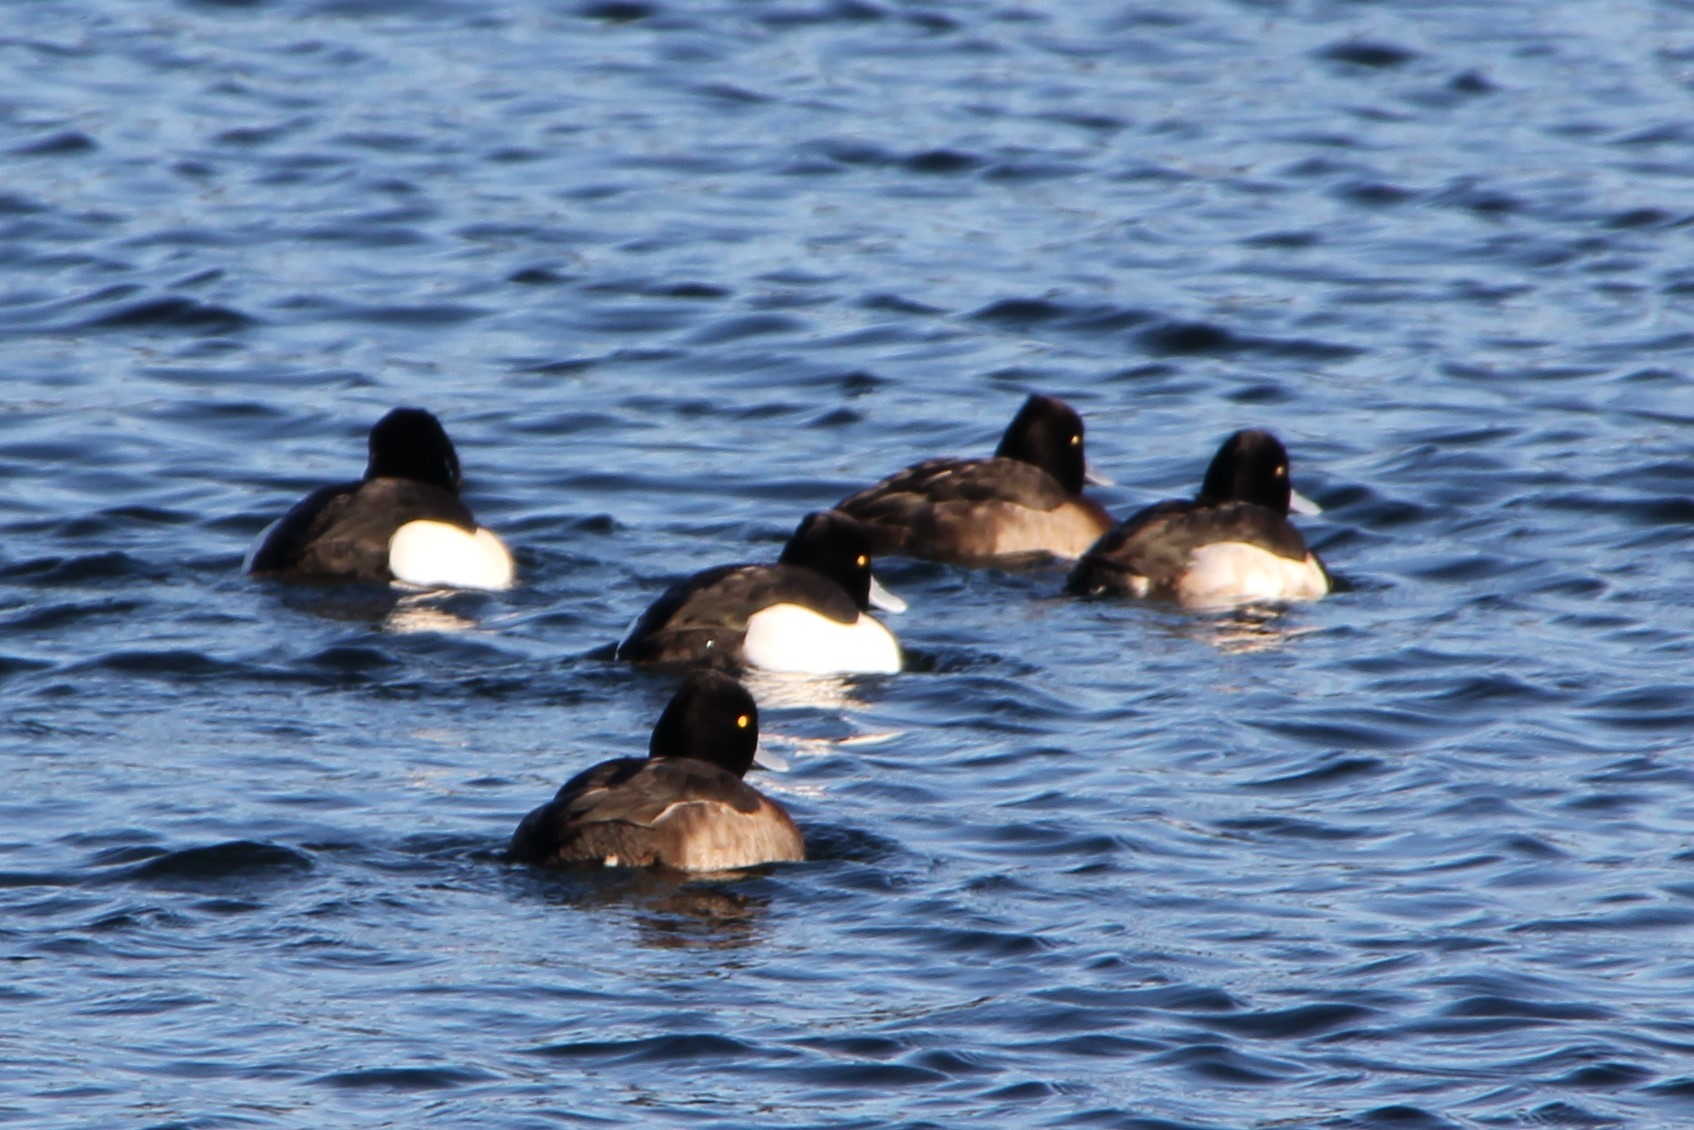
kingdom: Animalia
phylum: Chordata
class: Aves
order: Anseriformes
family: Anatidae
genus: Aythya
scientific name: Aythya fuligula
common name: Tufted duck
